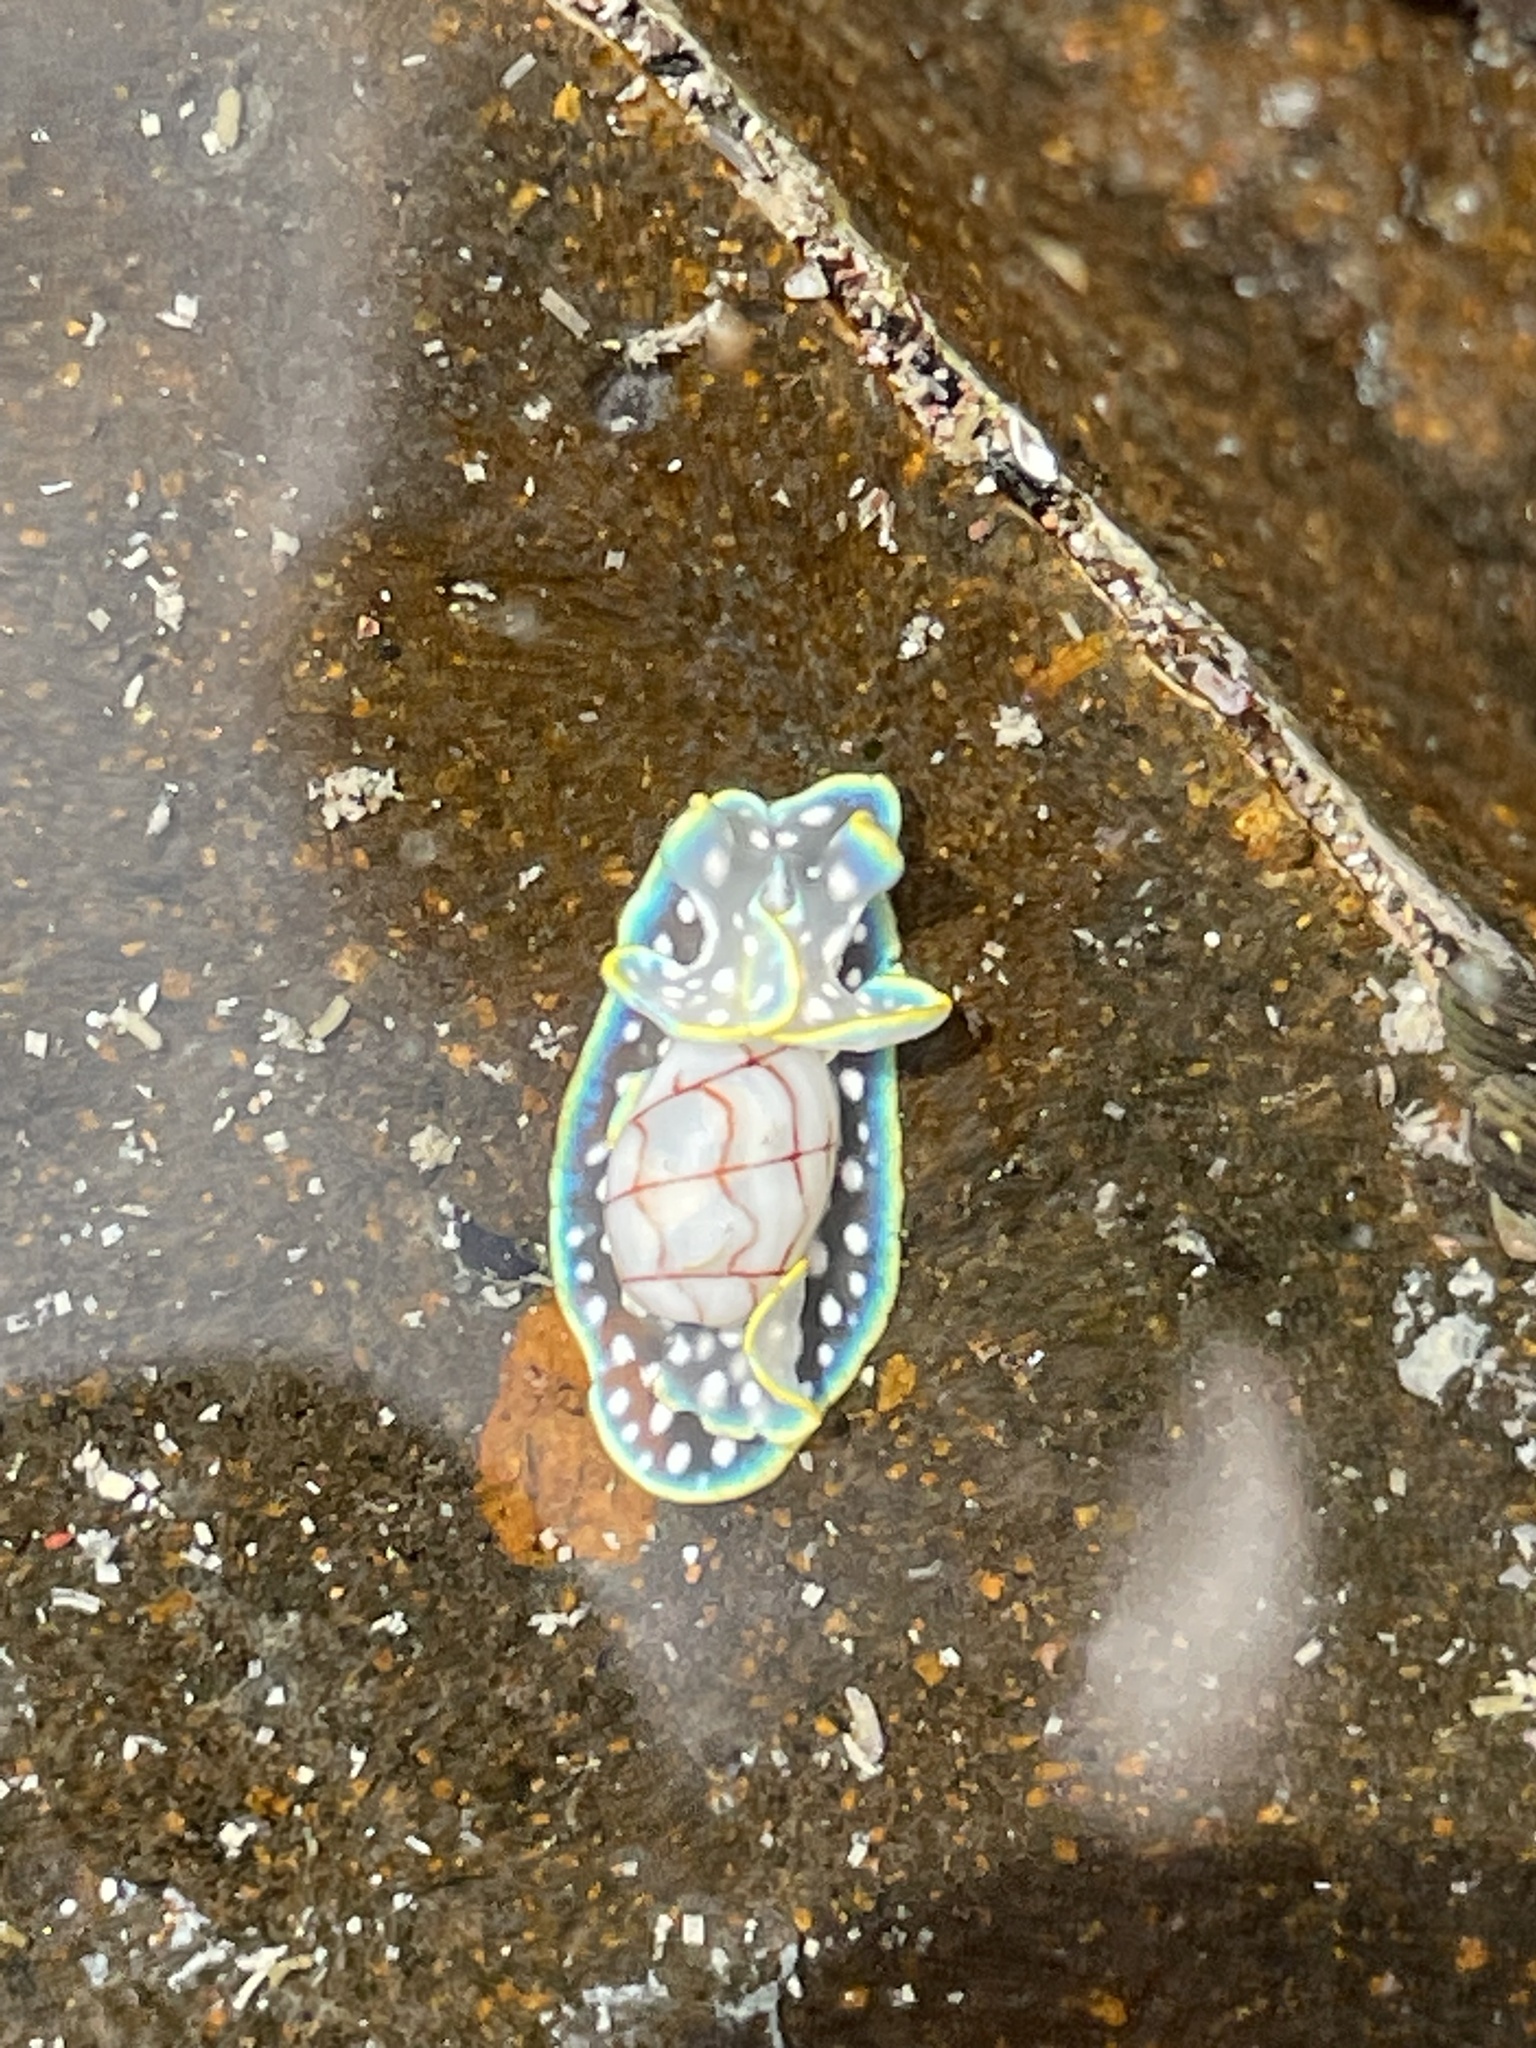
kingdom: Animalia
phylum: Mollusca
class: Gastropoda
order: Cephalaspidea
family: Aplustridae
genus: Micromelo
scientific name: Micromelo undatus
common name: Miniature melo
